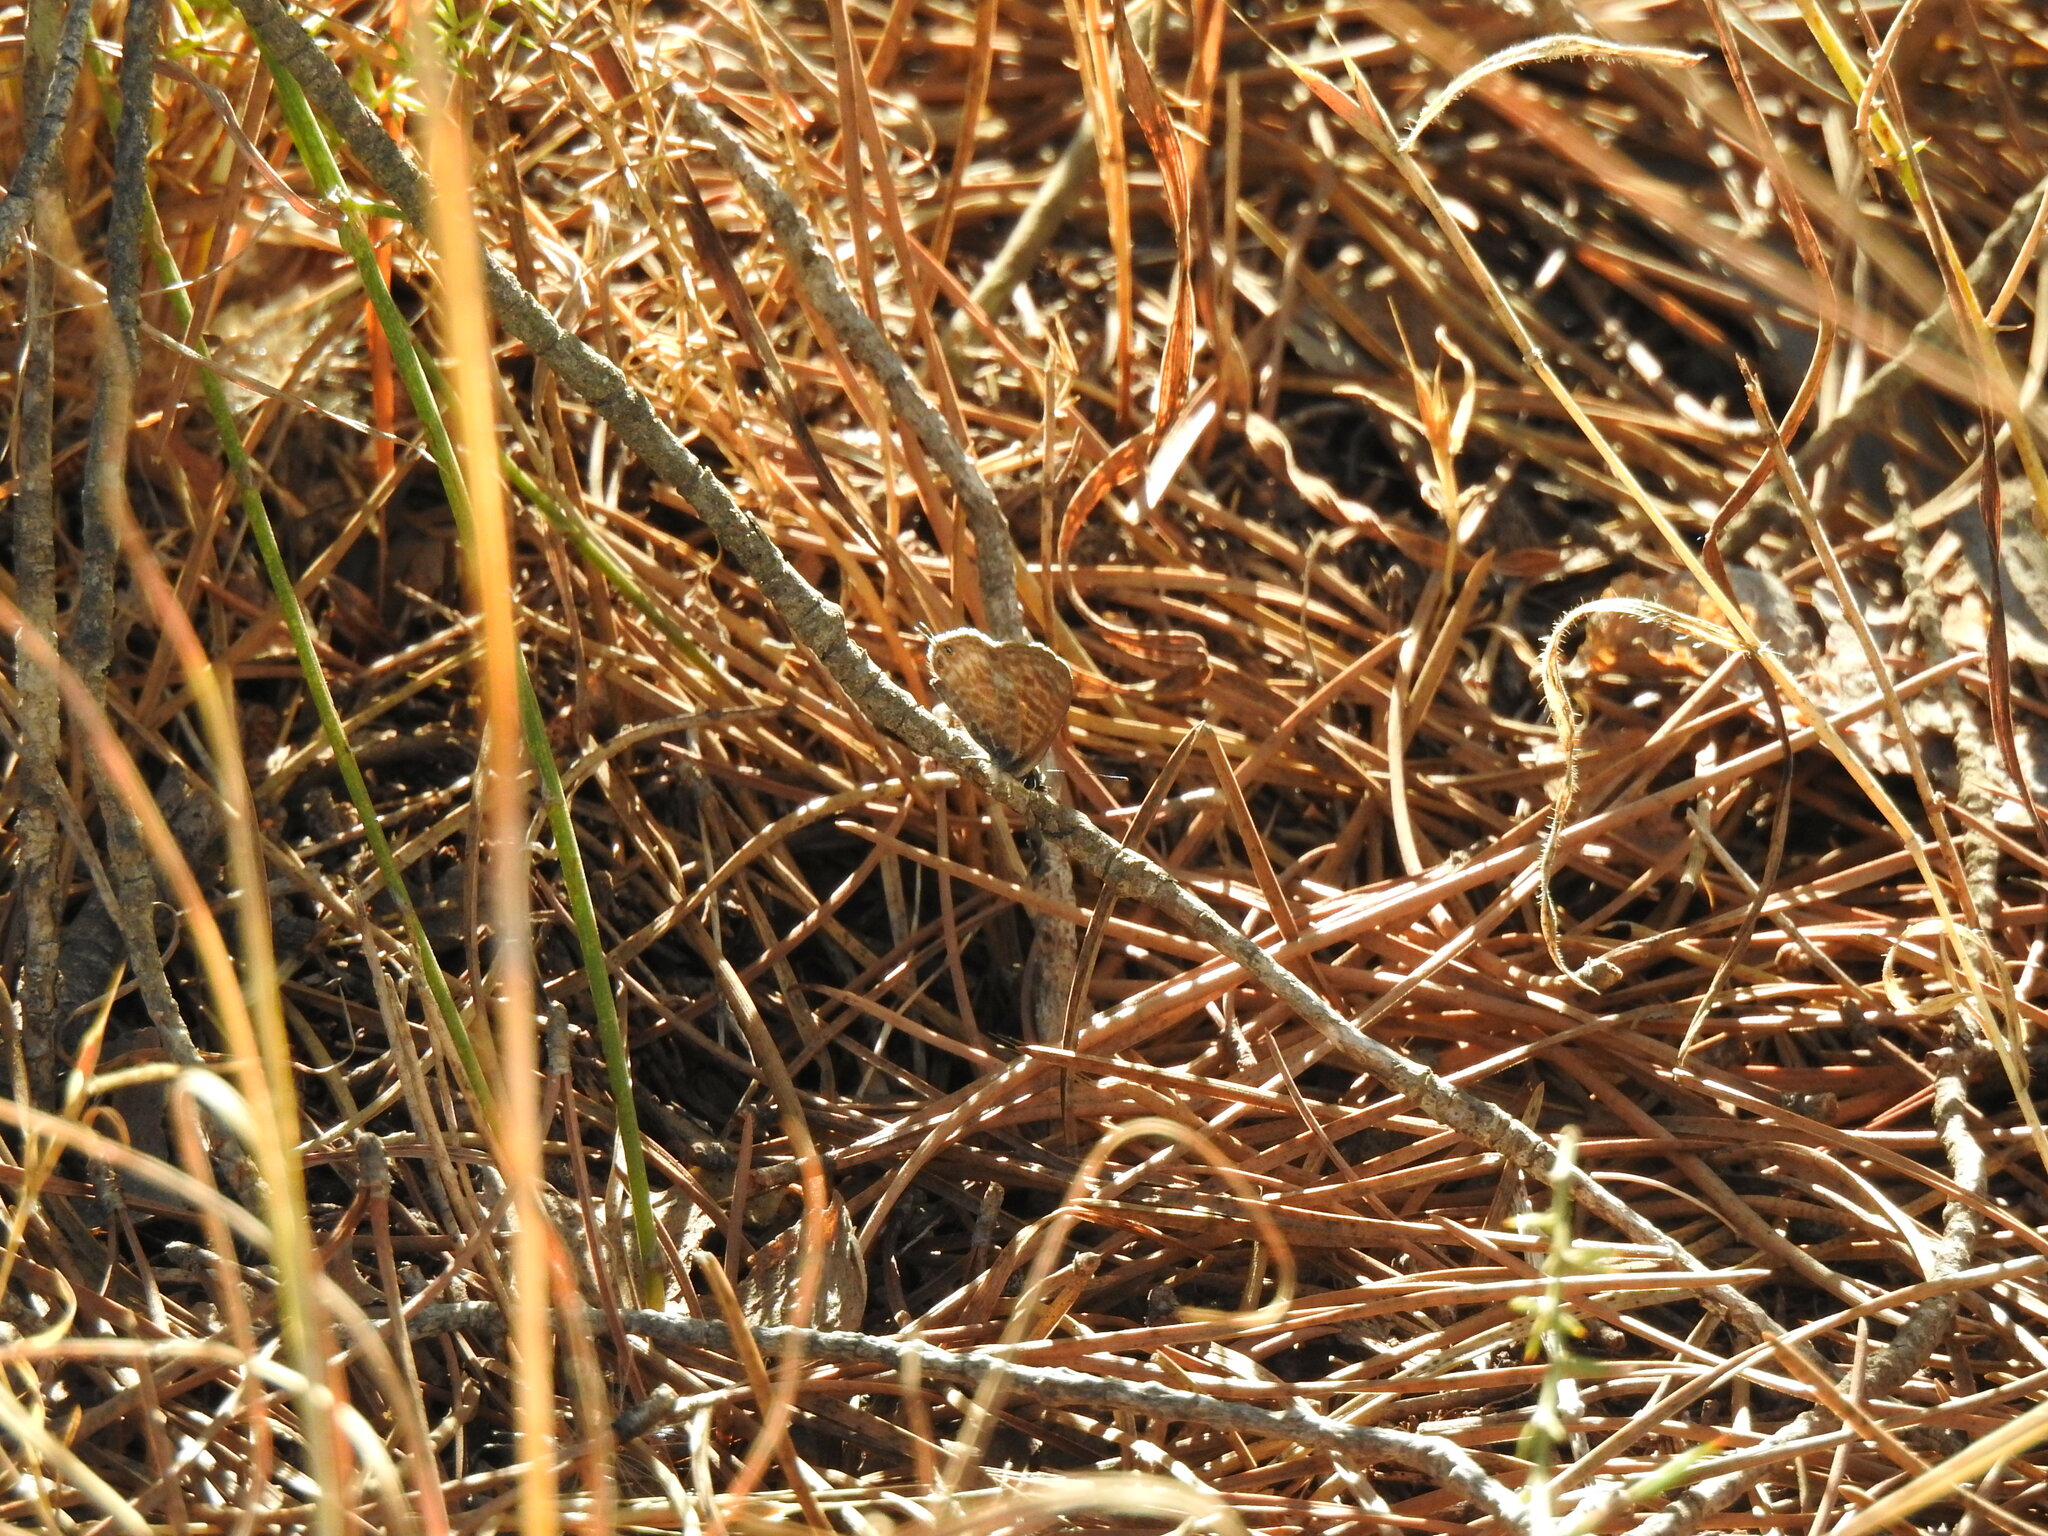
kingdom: Animalia
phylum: Arthropoda
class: Insecta
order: Lepidoptera
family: Lycaenidae
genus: Leptotes
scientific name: Leptotes pirithous
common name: Lang's short-tailed blue
